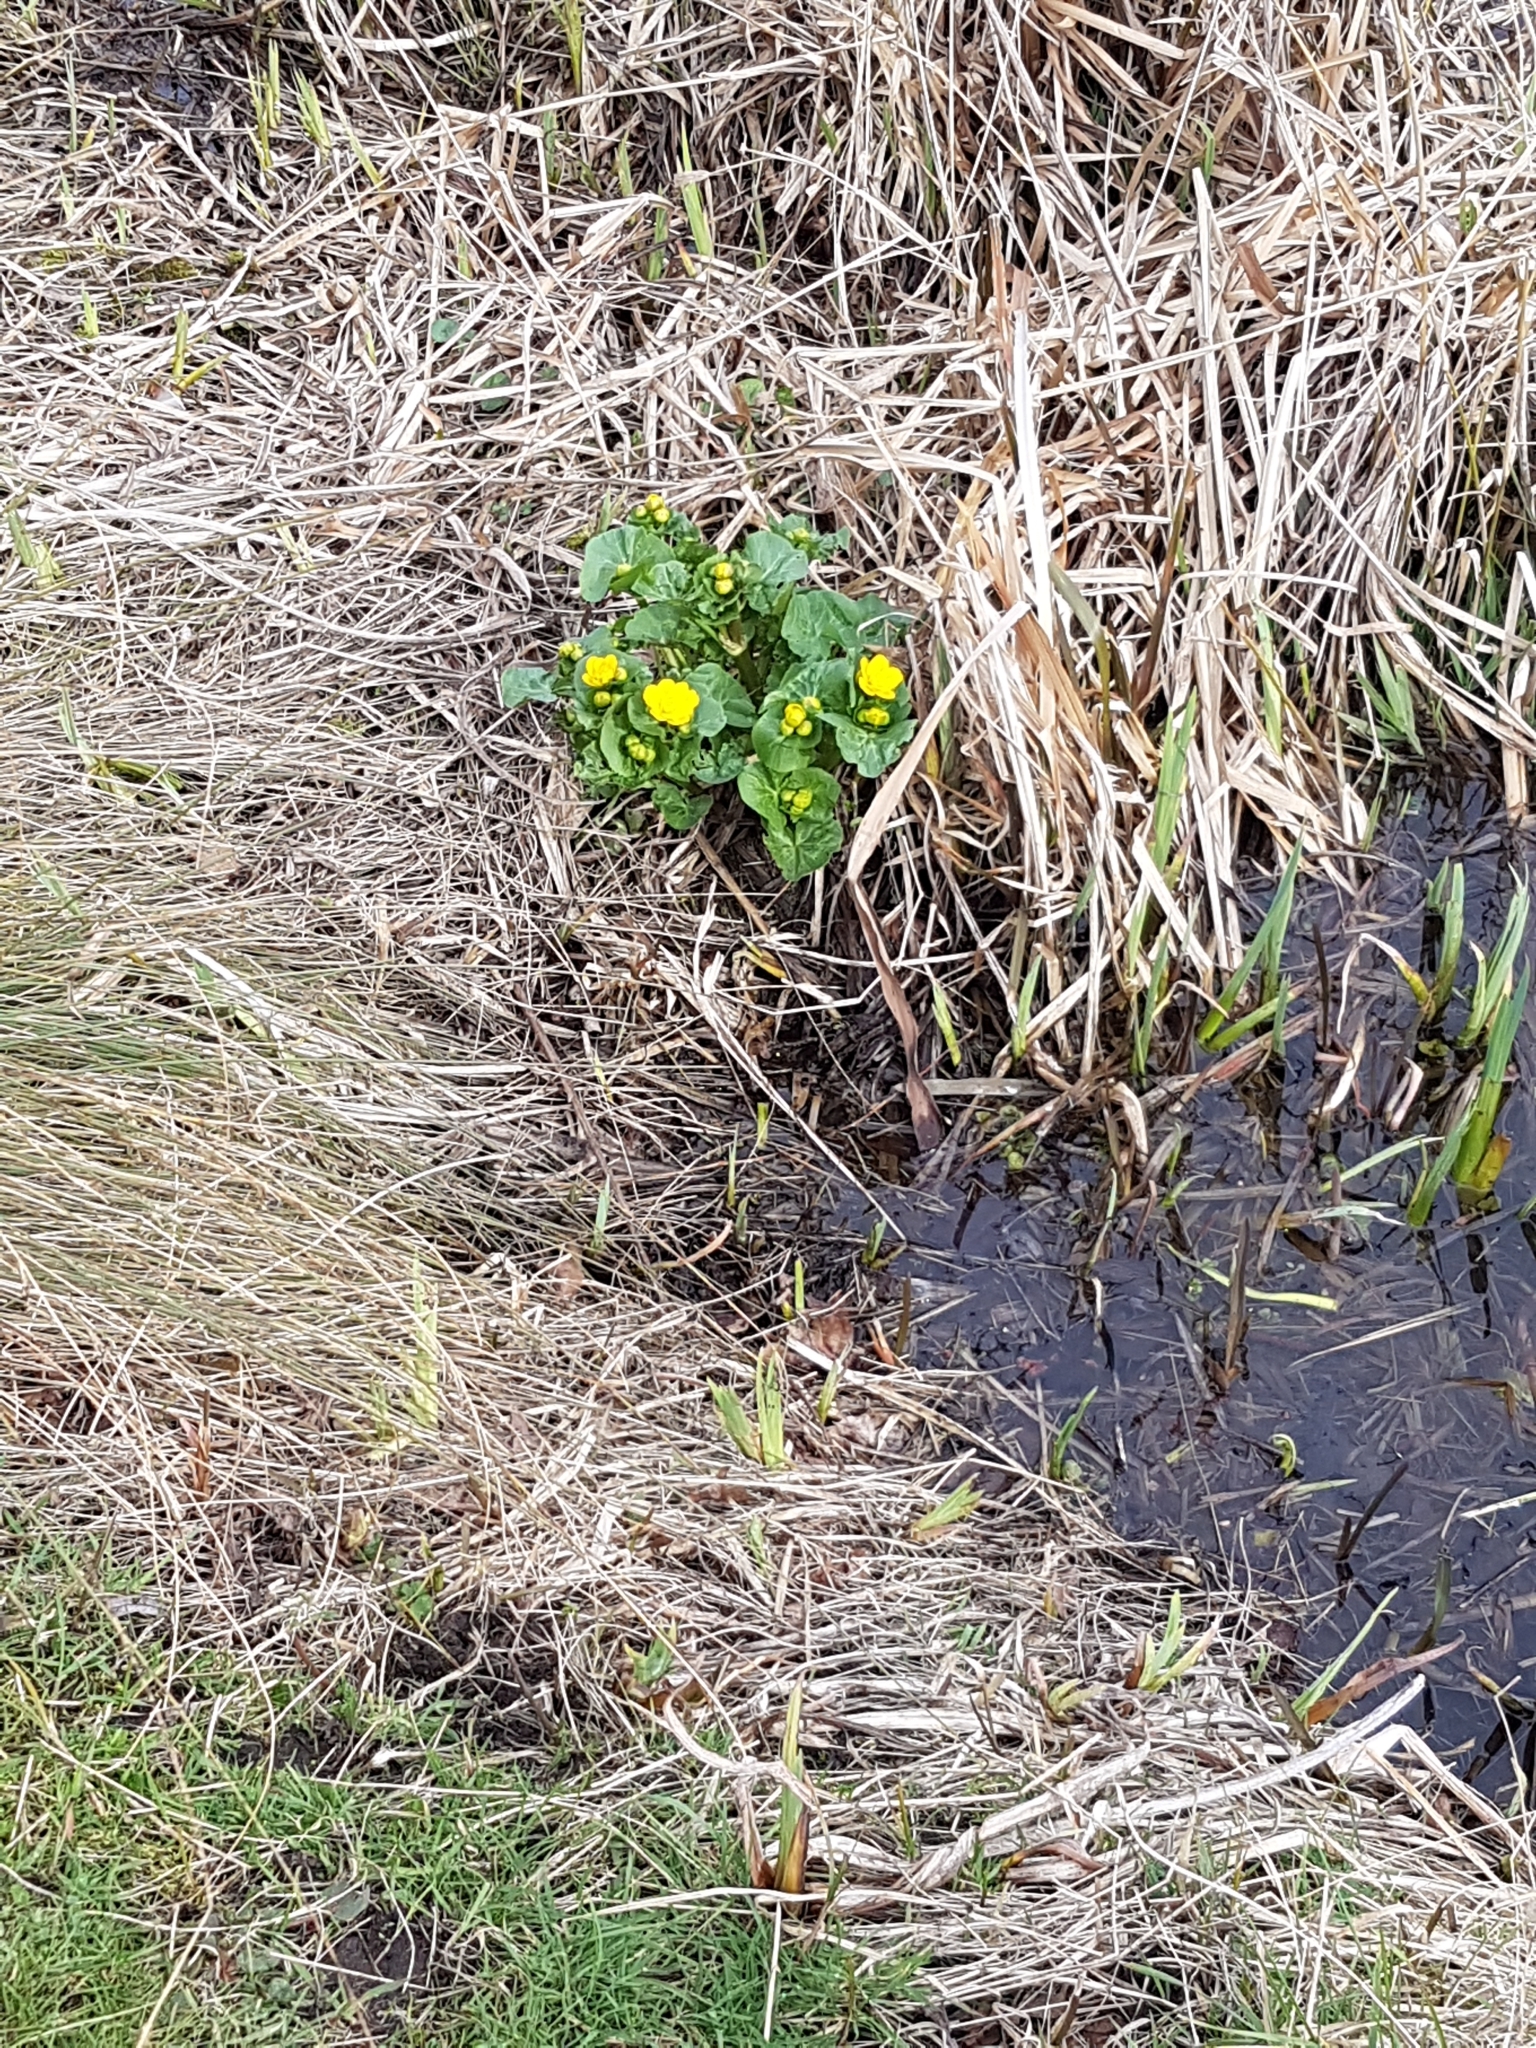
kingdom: Plantae
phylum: Tracheophyta
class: Magnoliopsida
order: Ranunculales
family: Ranunculaceae
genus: Caltha
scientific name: Caltha palustris
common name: Marsh marigold
